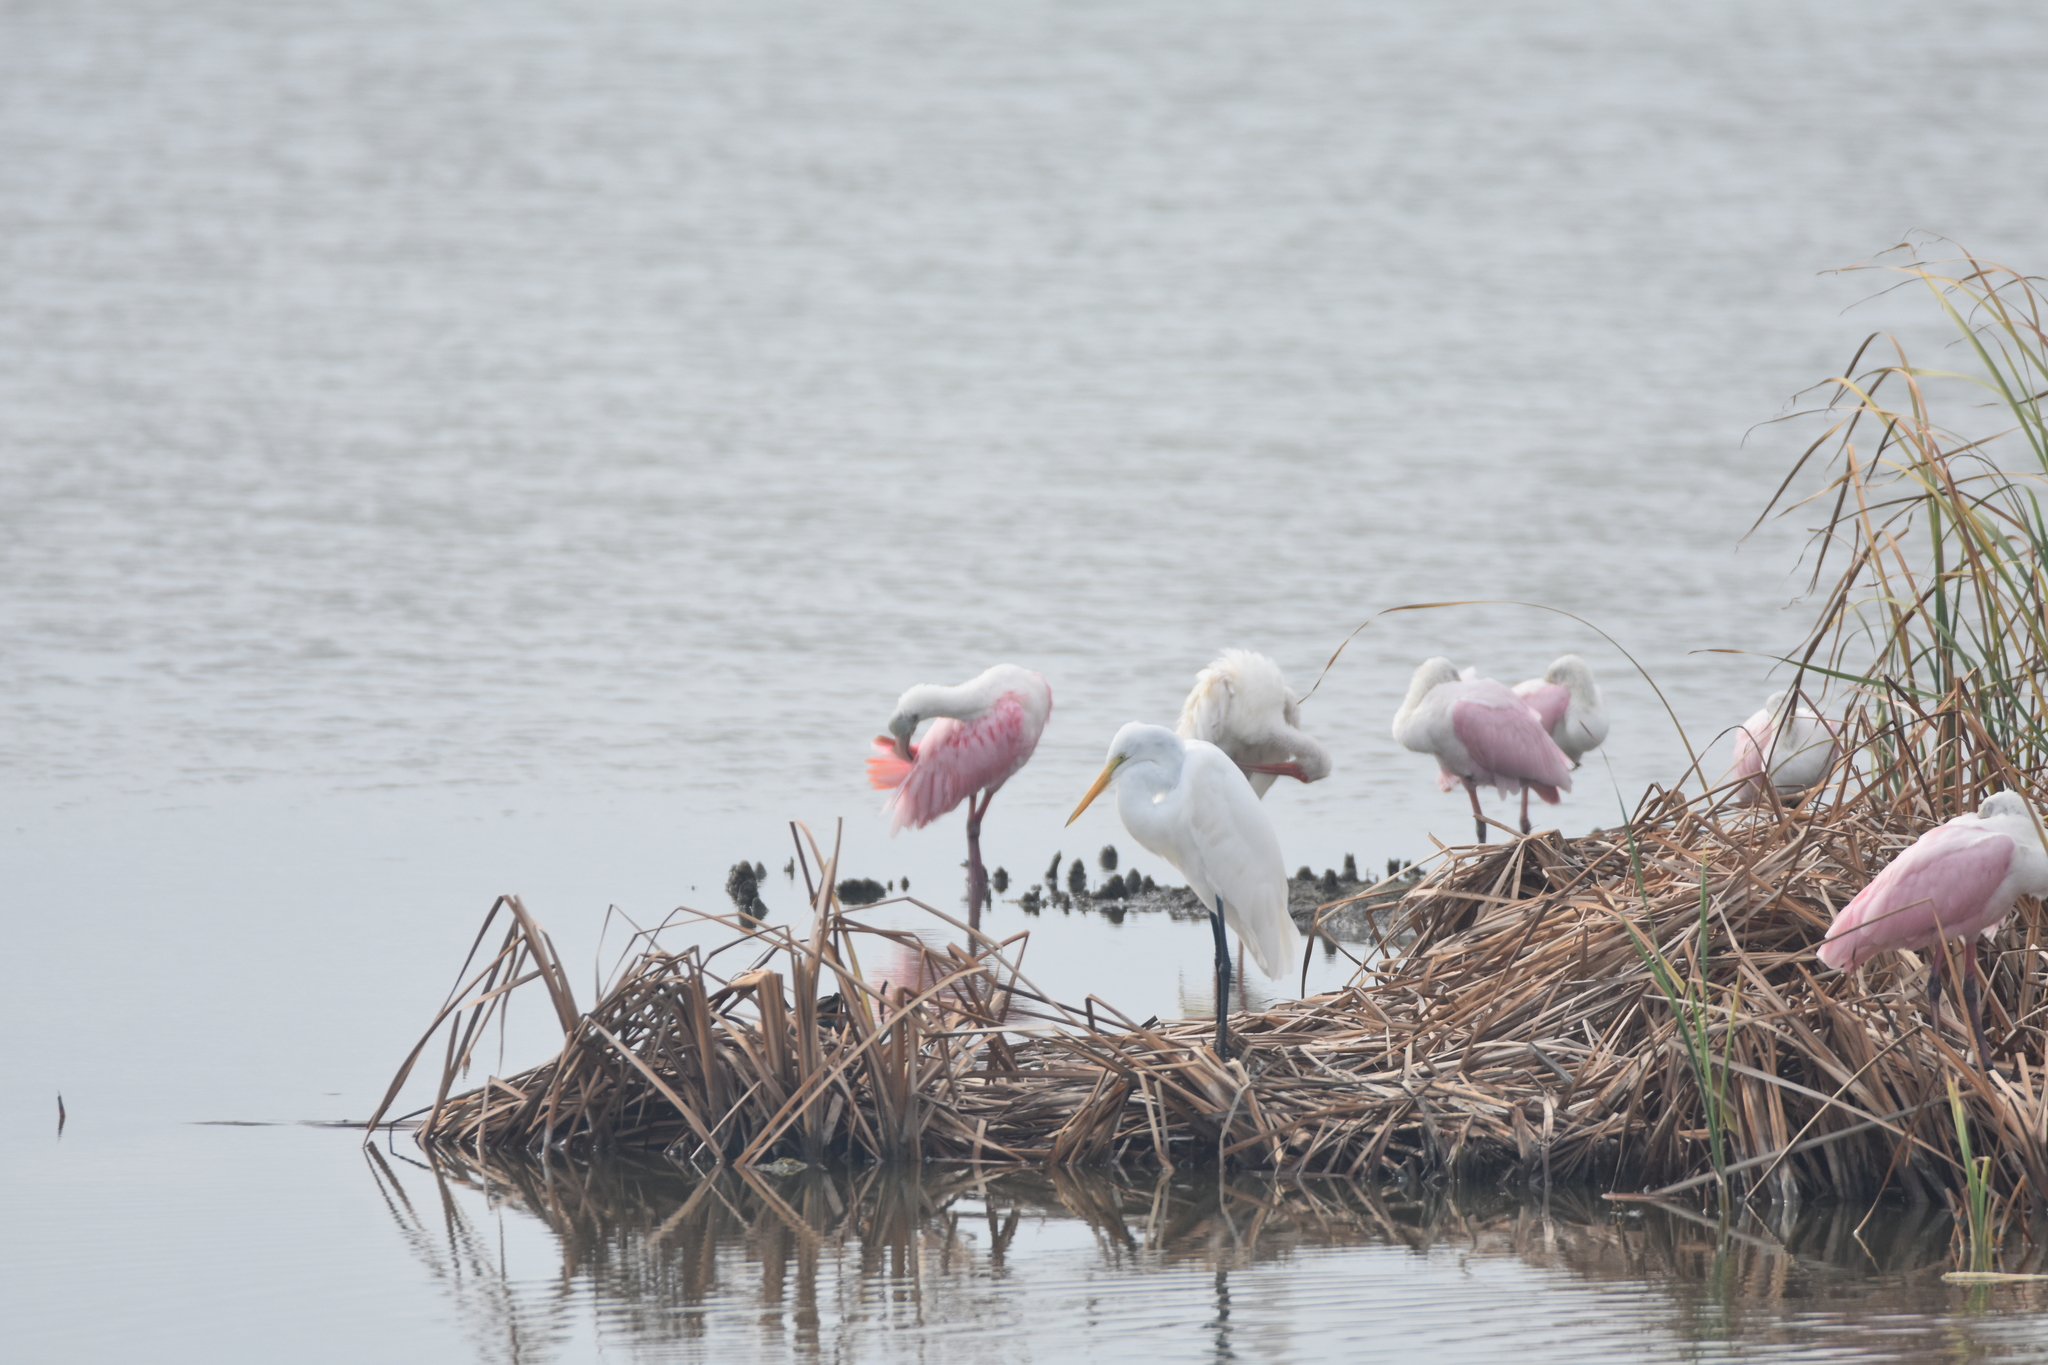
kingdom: Animalia
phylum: Chordata
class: Aves
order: Pelecaniformes
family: Ardeidae
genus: Ardea
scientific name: Ardea alba
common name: Great egret
